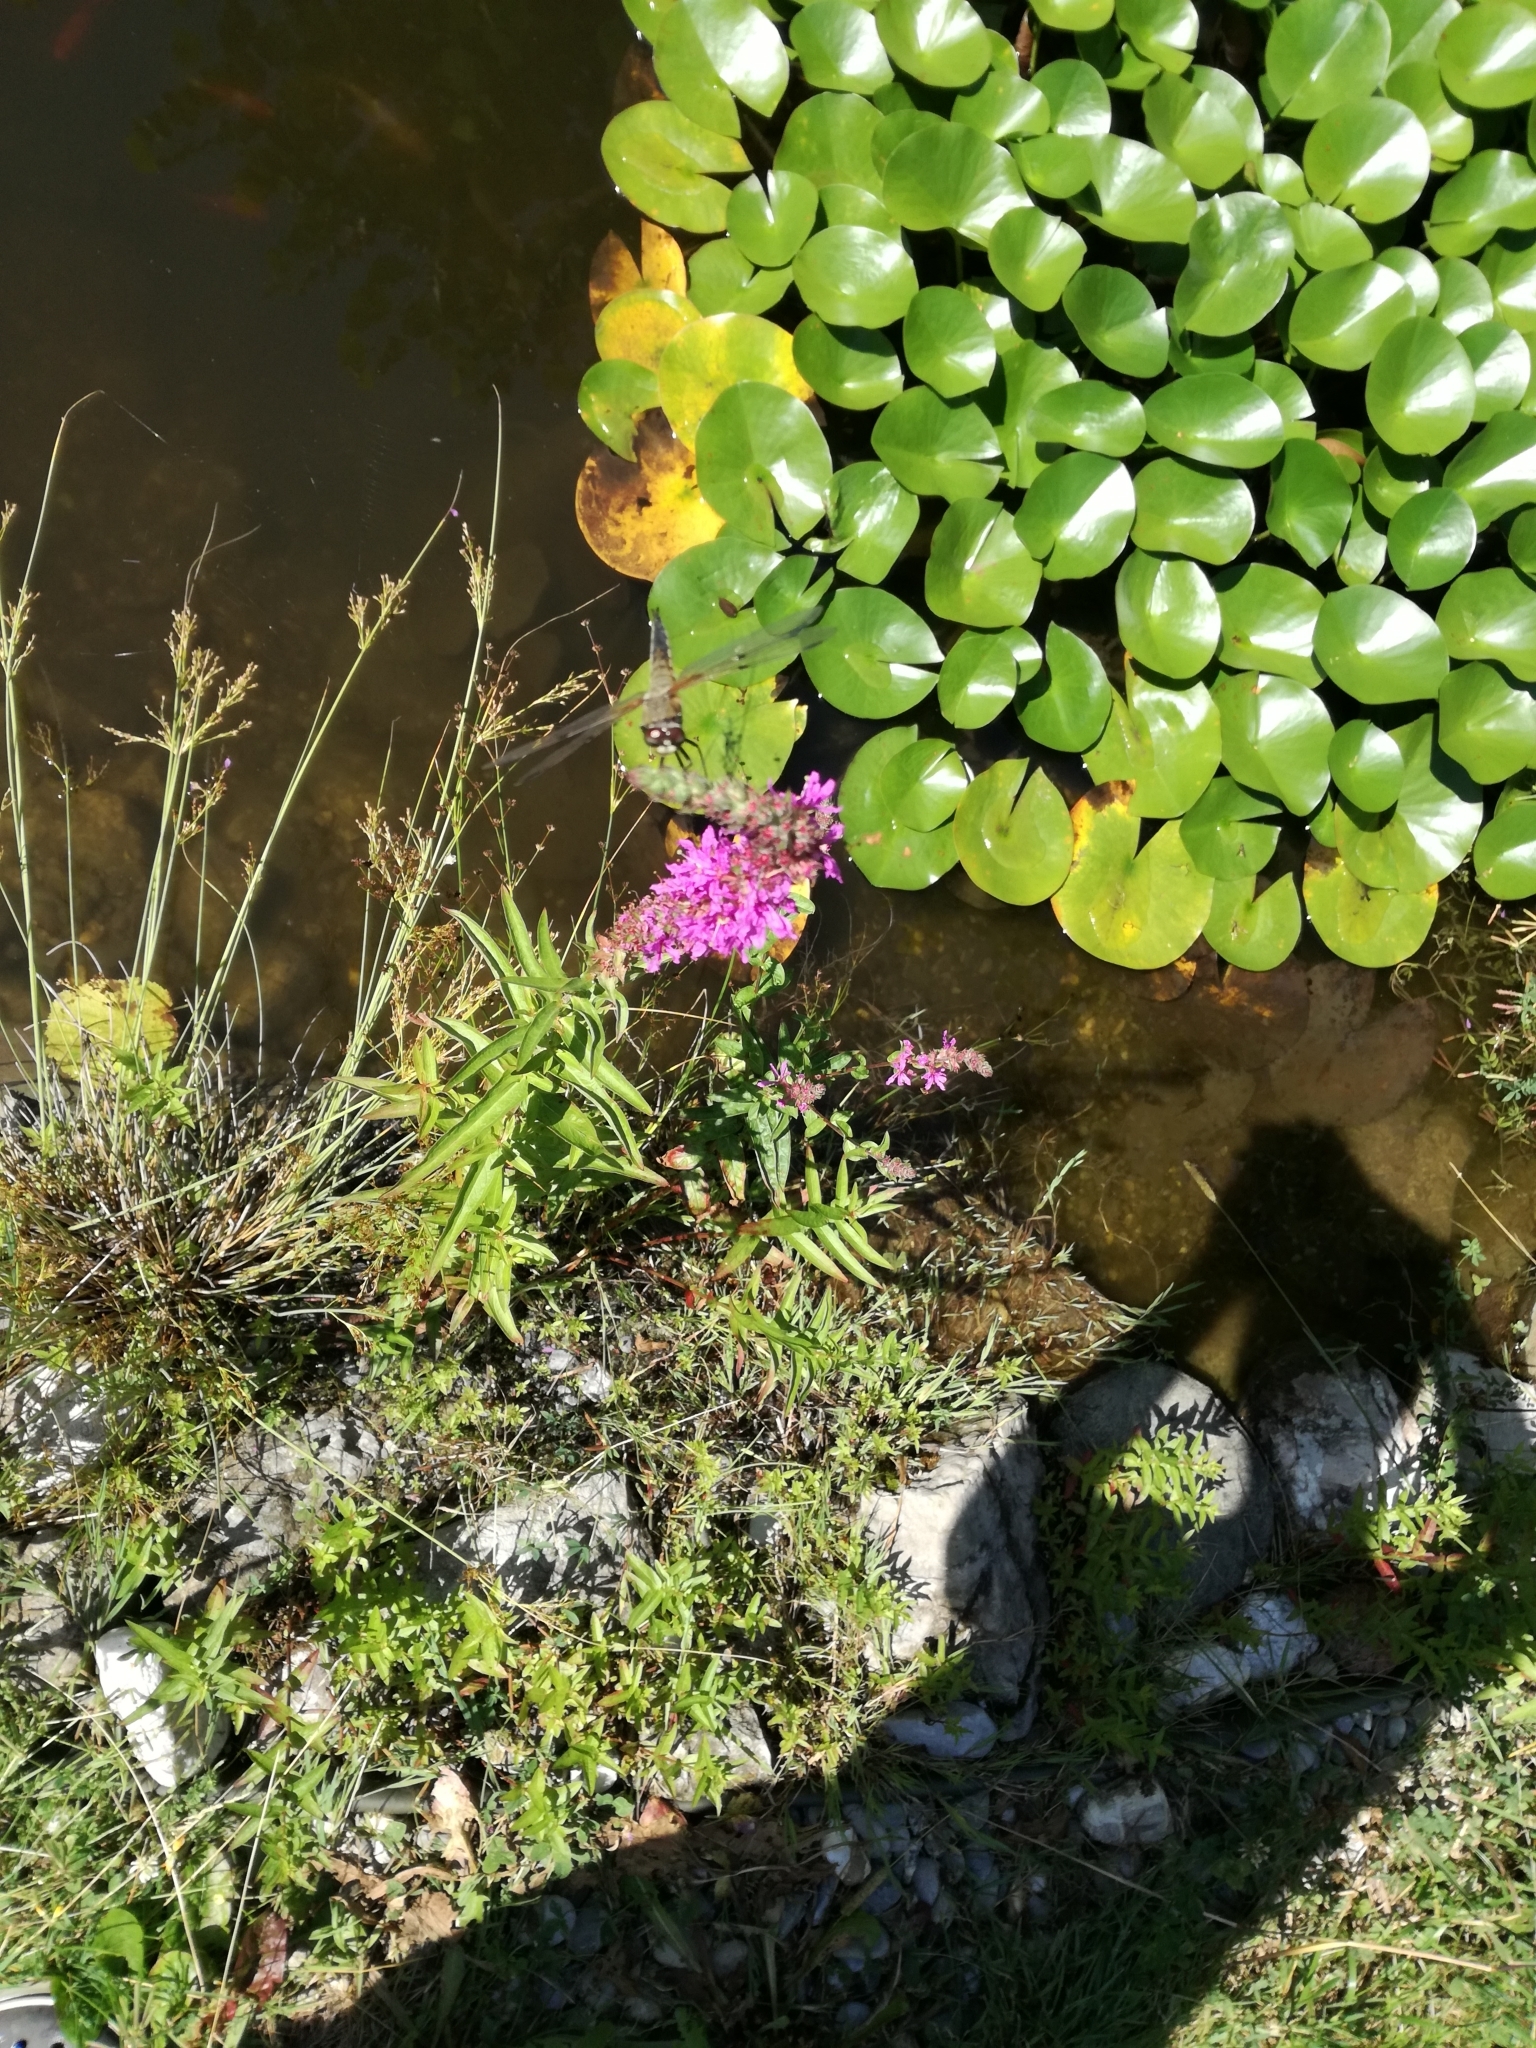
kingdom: Animalia
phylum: Arthropoda
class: Insecta
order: Odonata
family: Libellulidae
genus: Libellula
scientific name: Libellula quadrimaculata
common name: Four-spotted chaser
